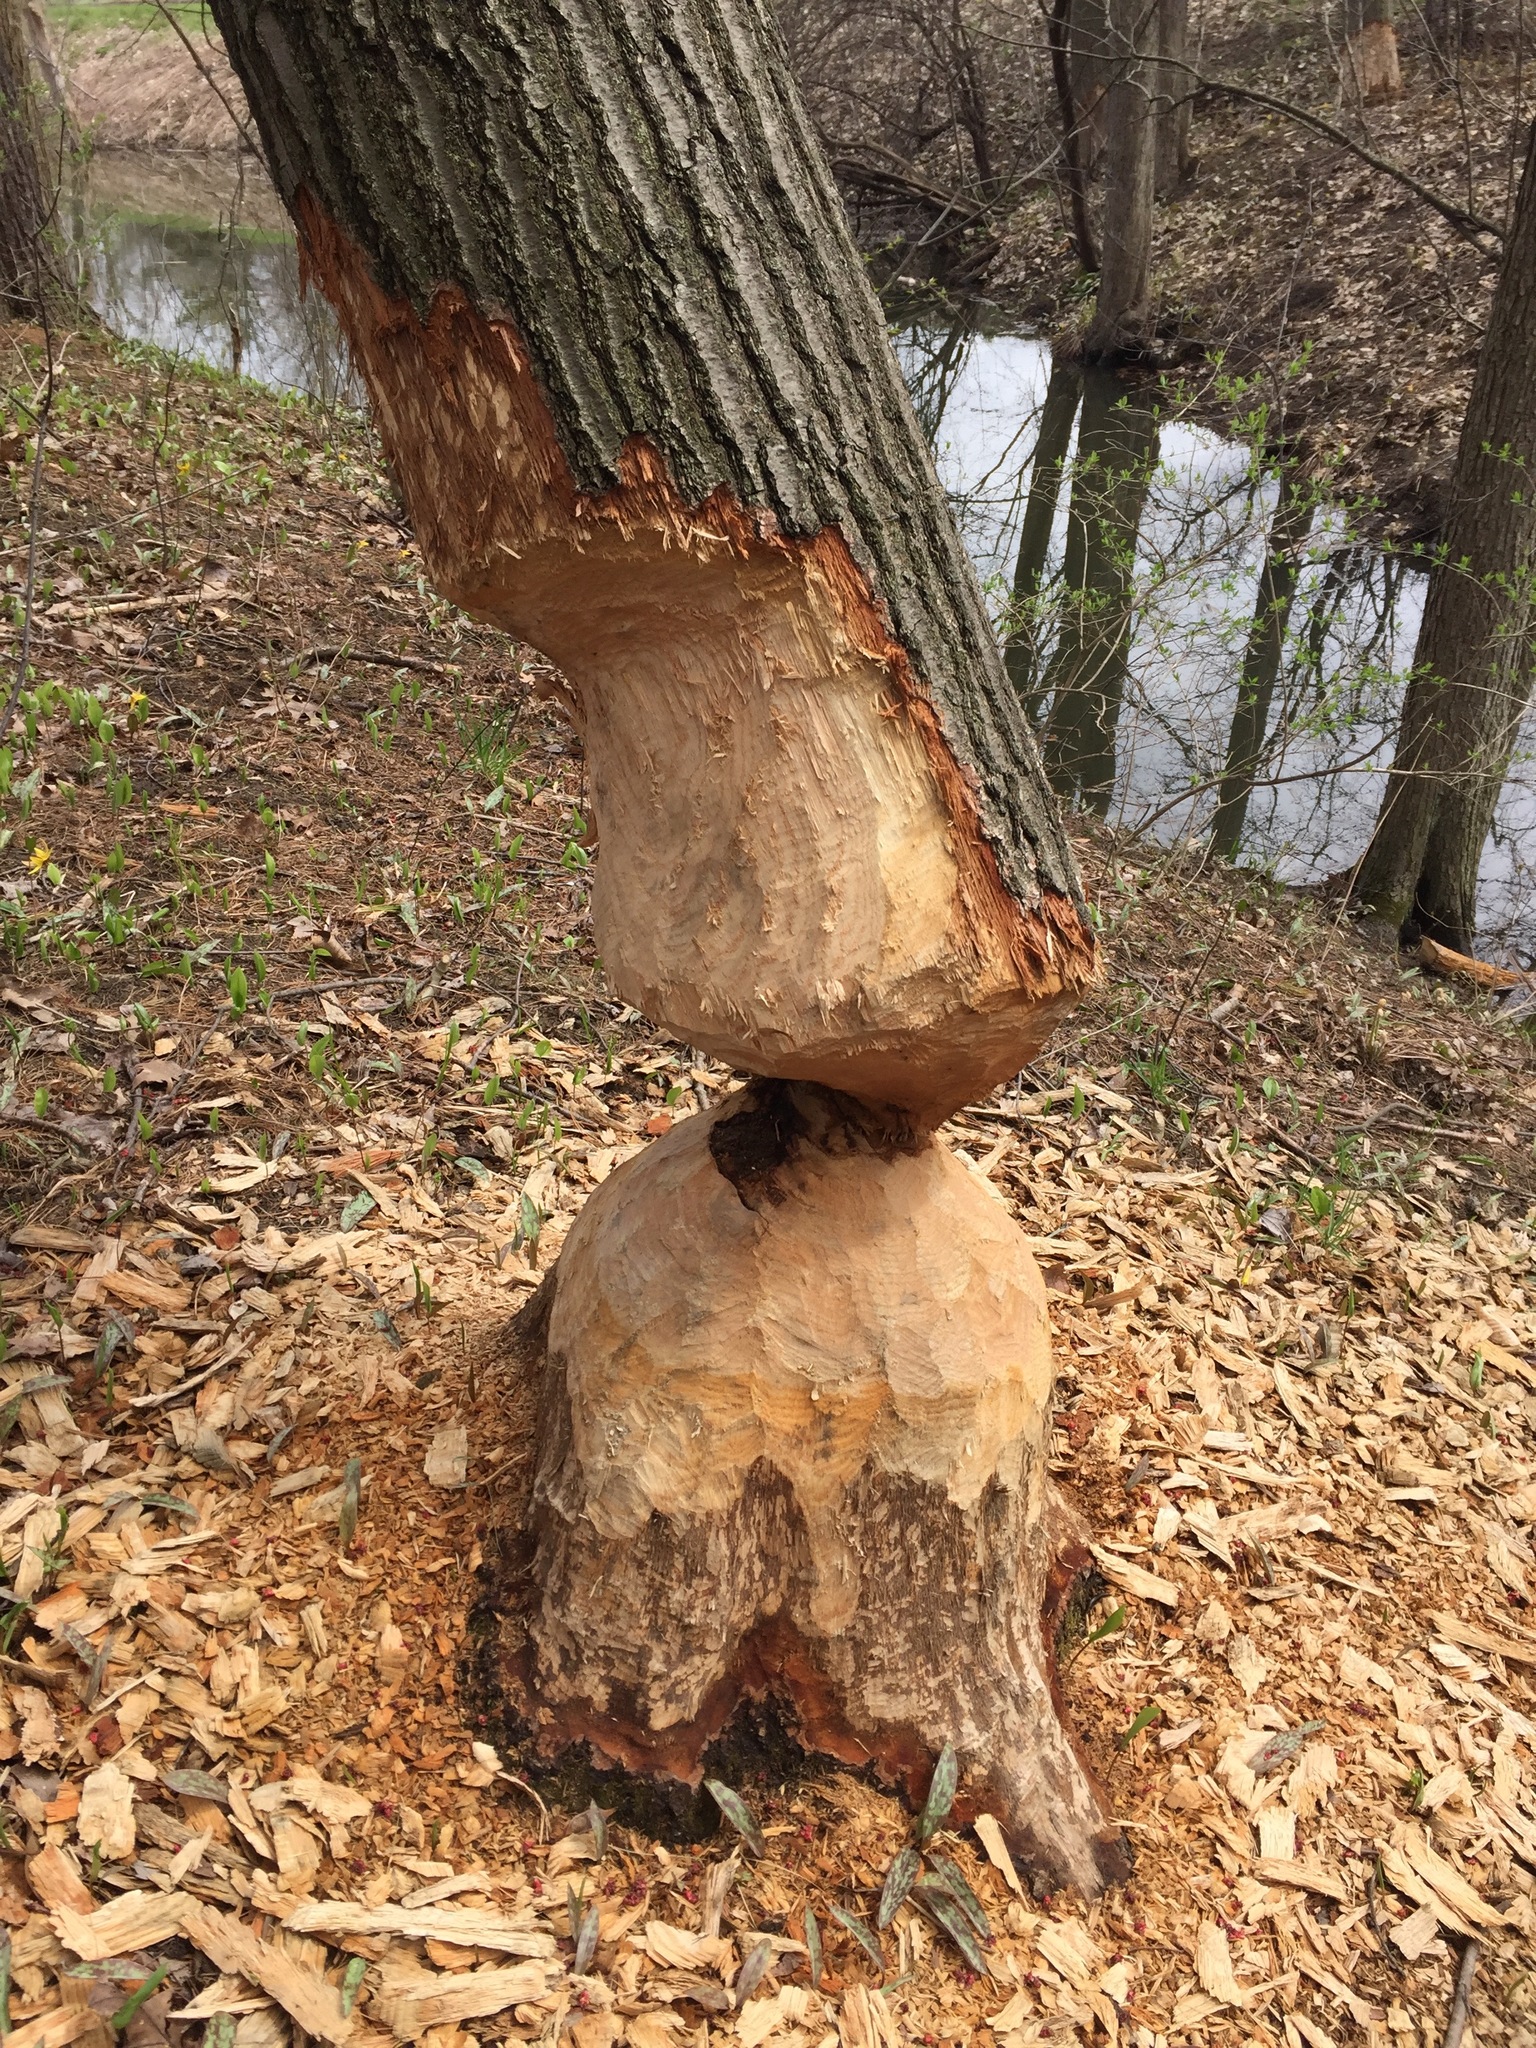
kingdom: Animalia
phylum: Chordata
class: Mammalia
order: Rodentia
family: Castoridae
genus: Castor
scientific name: Castor canadensis
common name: American beaver
